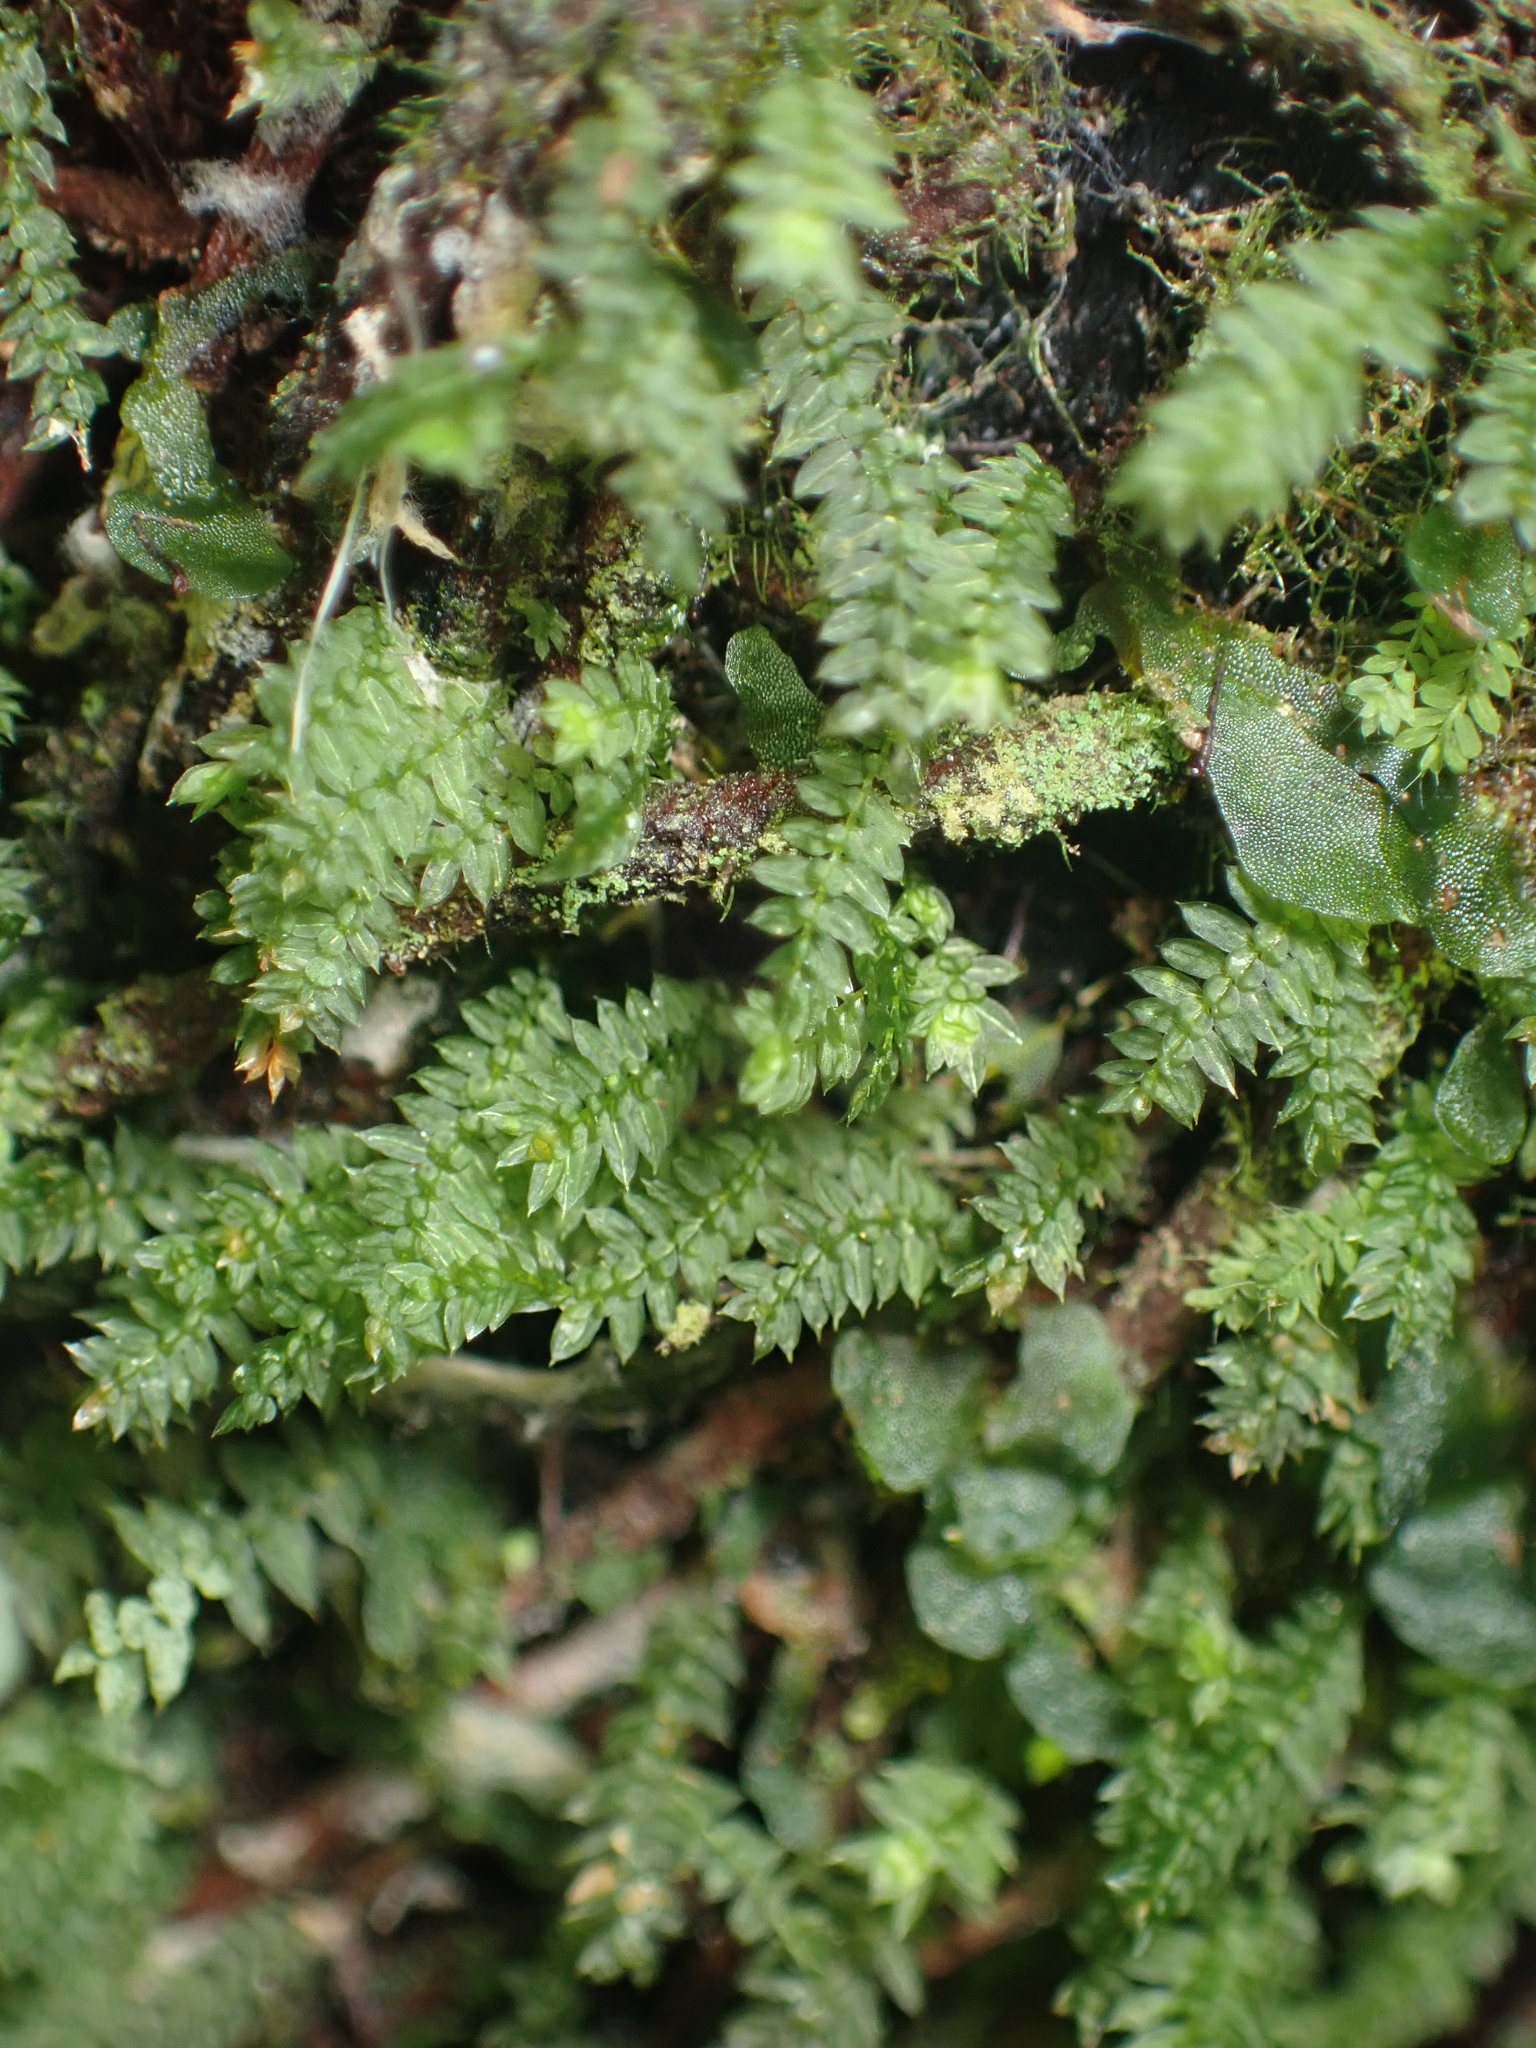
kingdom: Plantae
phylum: Bryophyta
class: Bryopsida
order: Rhizogoniales
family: Calomniaceae
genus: Calomnion
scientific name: Calomnion complanatum
